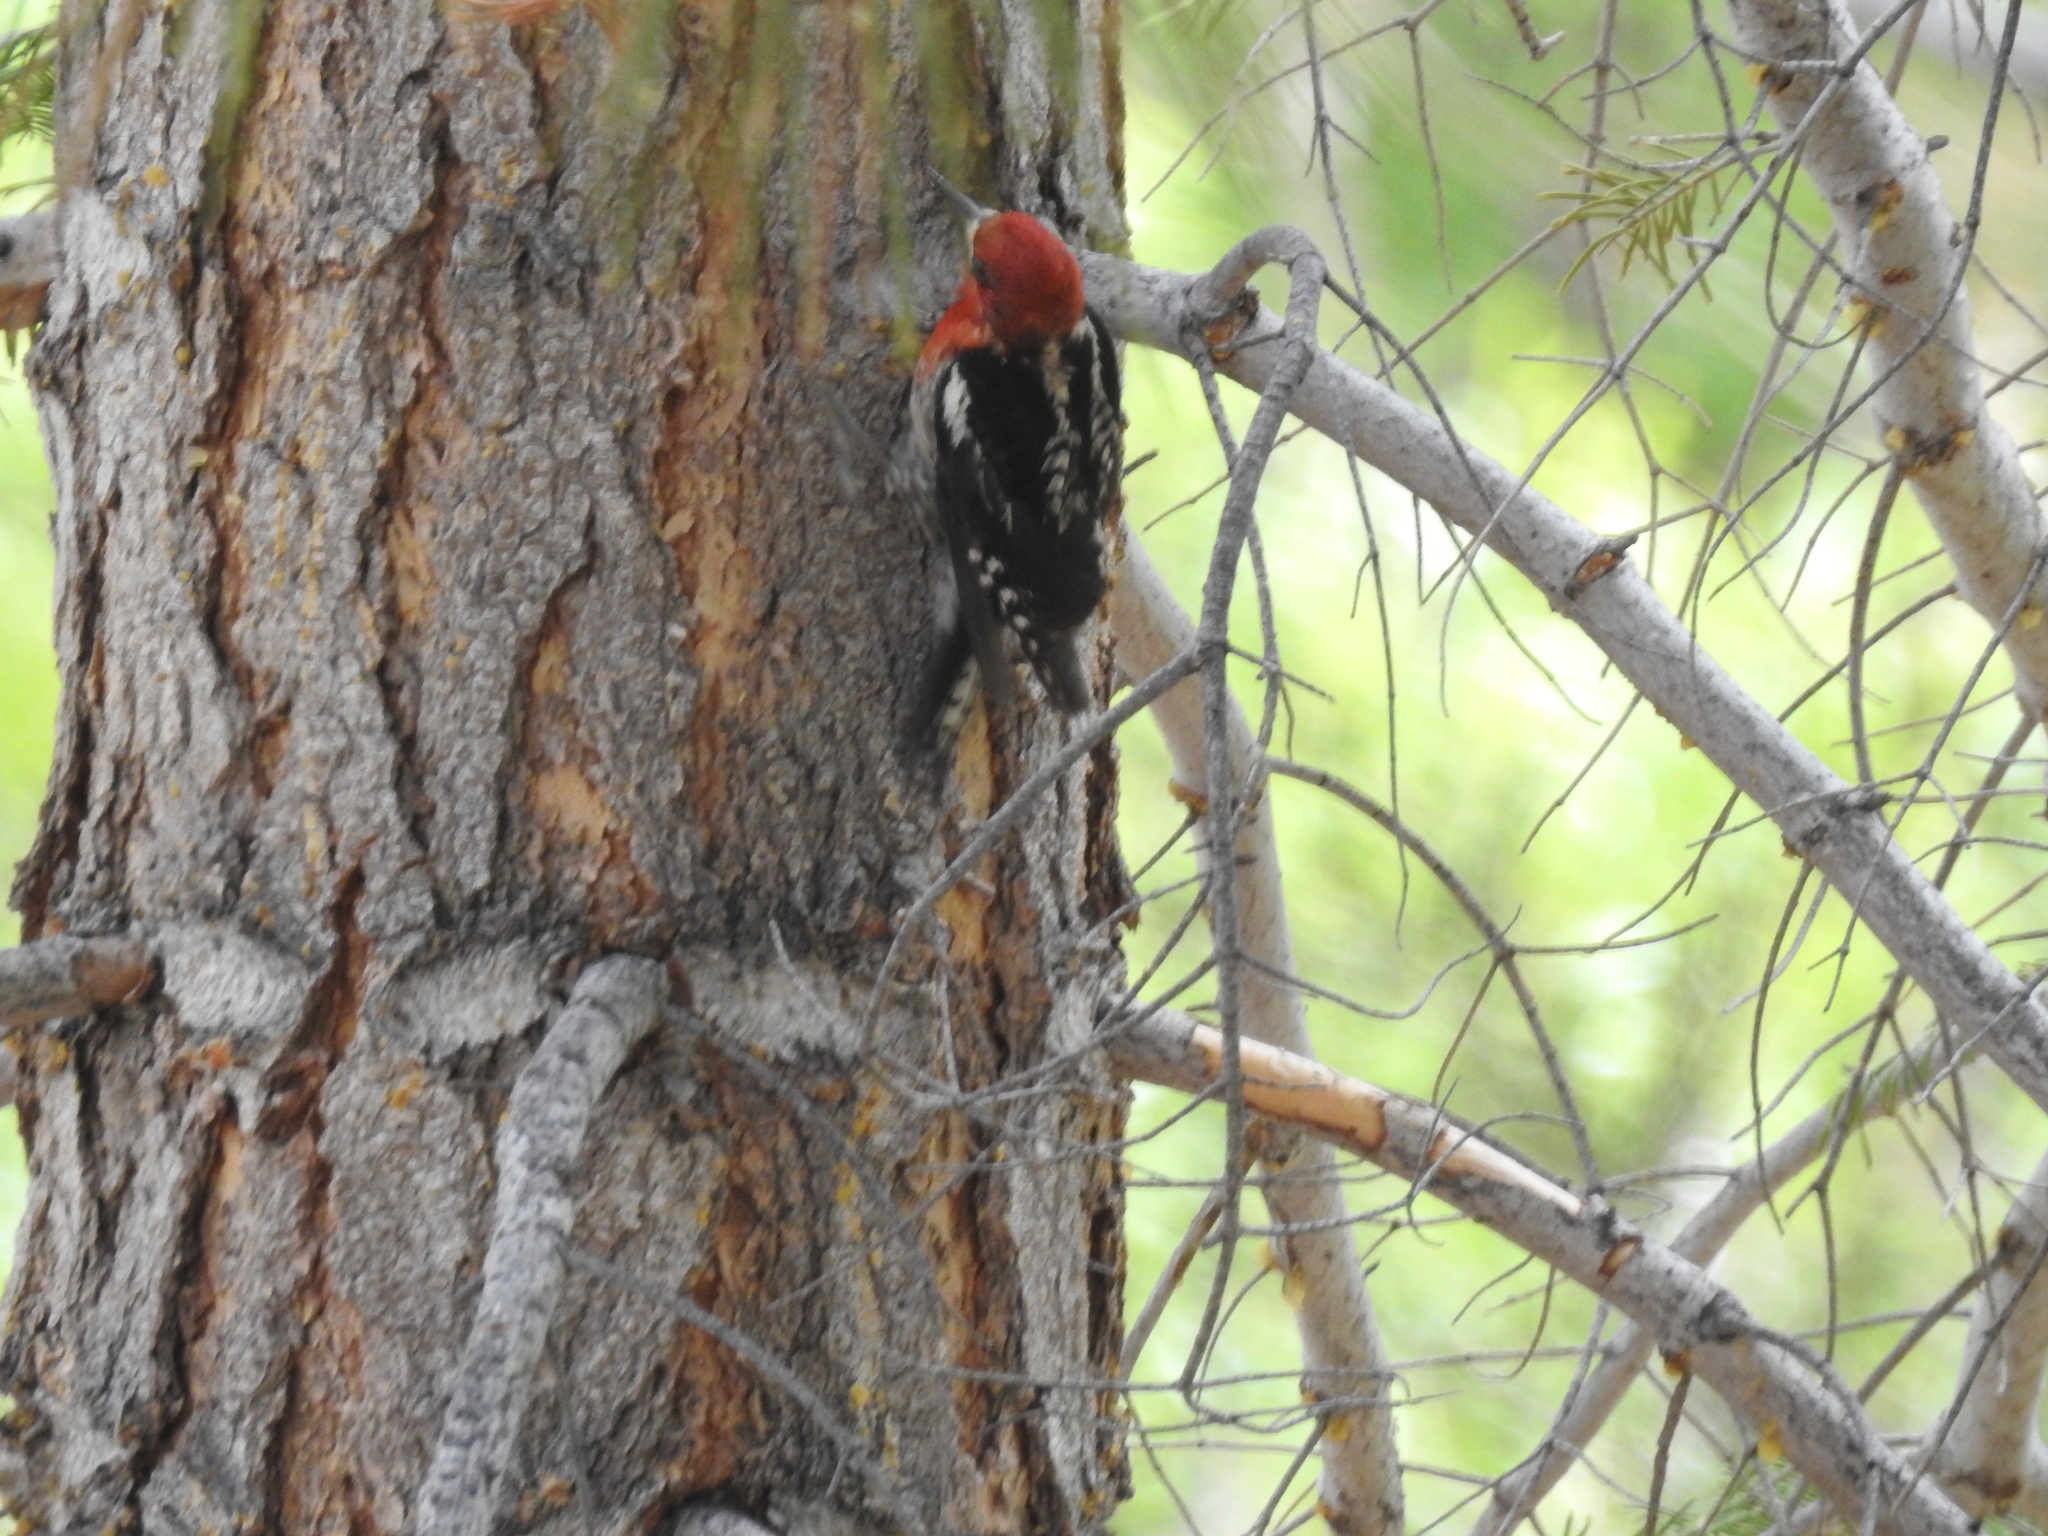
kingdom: Animalia
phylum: Chordata
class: Aves
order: Piciformes
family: Picidae
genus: Sphyrapicus
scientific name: Sphyrapicus ruber
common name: Red-breasted sapsucker
